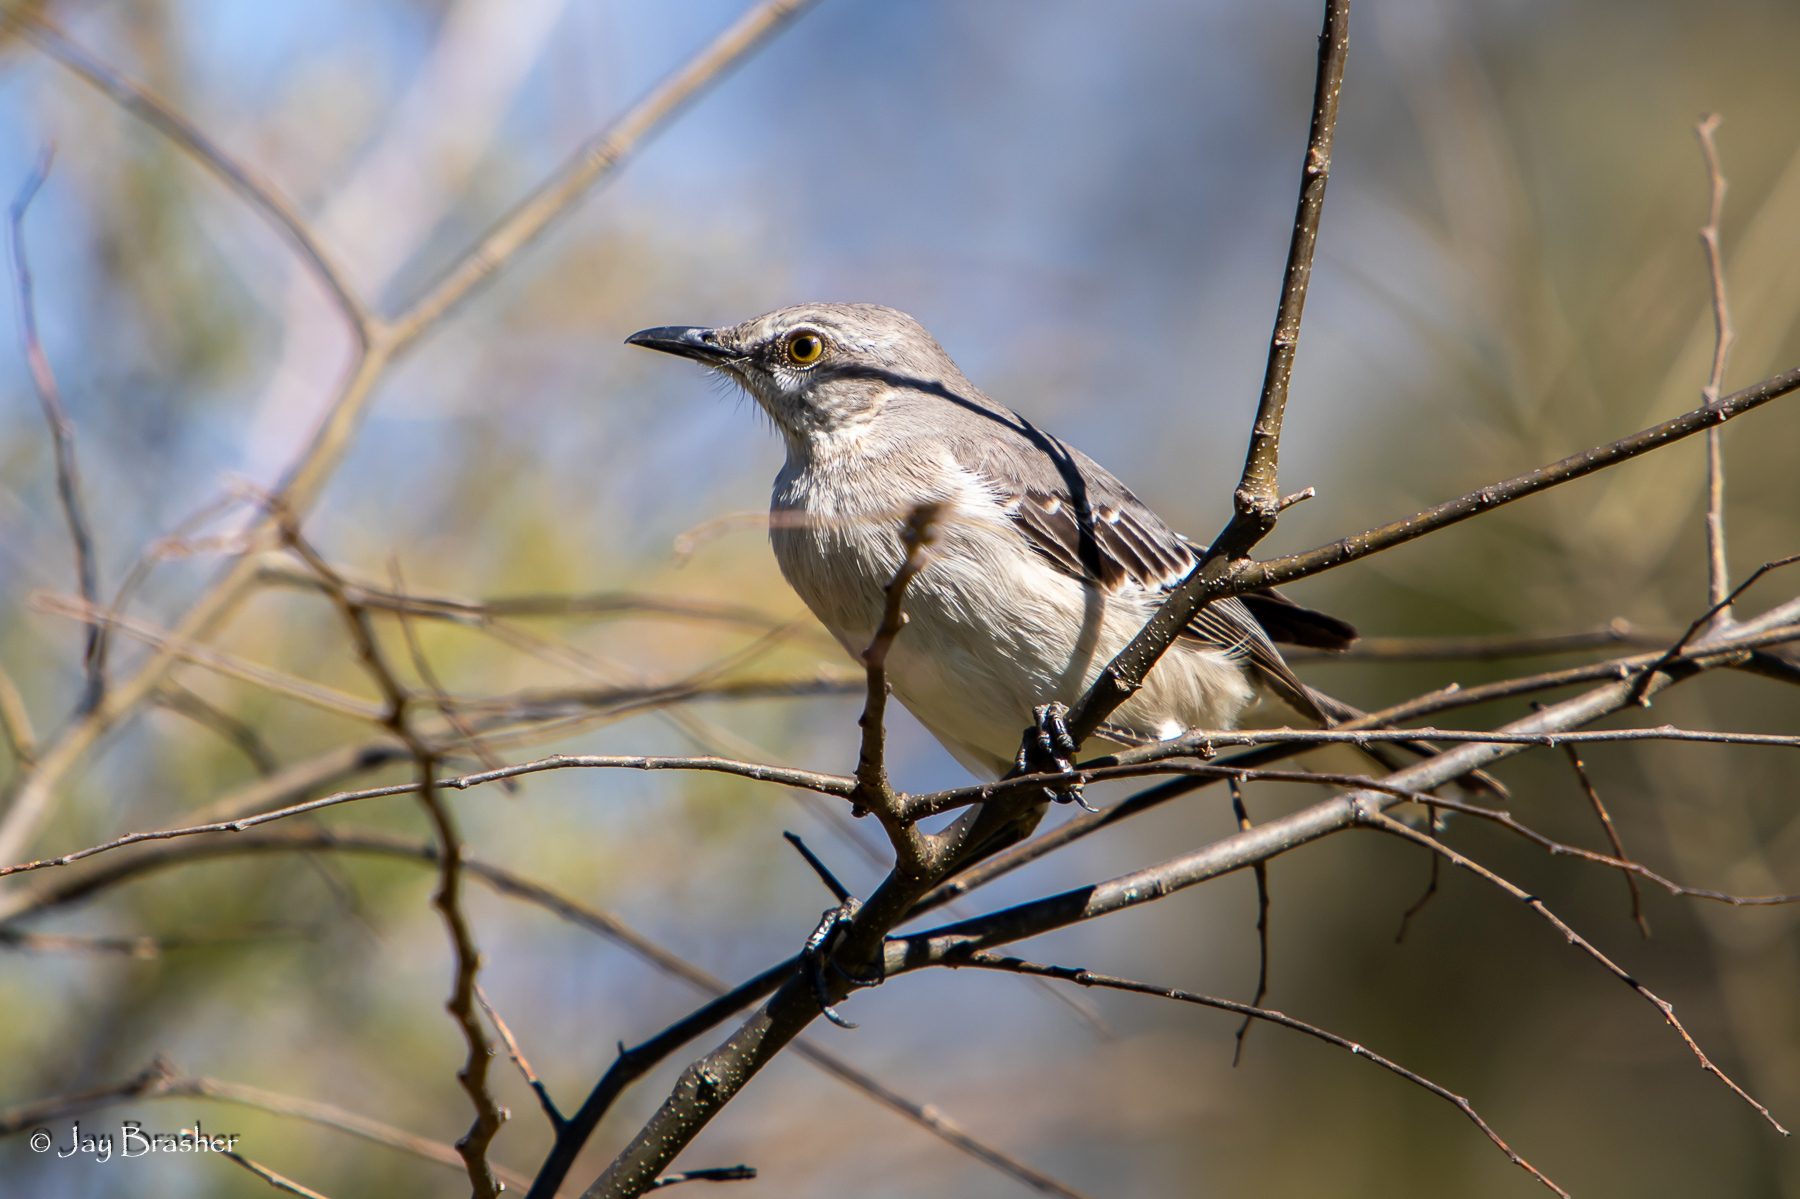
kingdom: Animalia
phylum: Chordata
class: Aves
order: Passeriformes
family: Mimidae
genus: Mimus
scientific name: Mimus polyglottos
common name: Northern mockingbird
